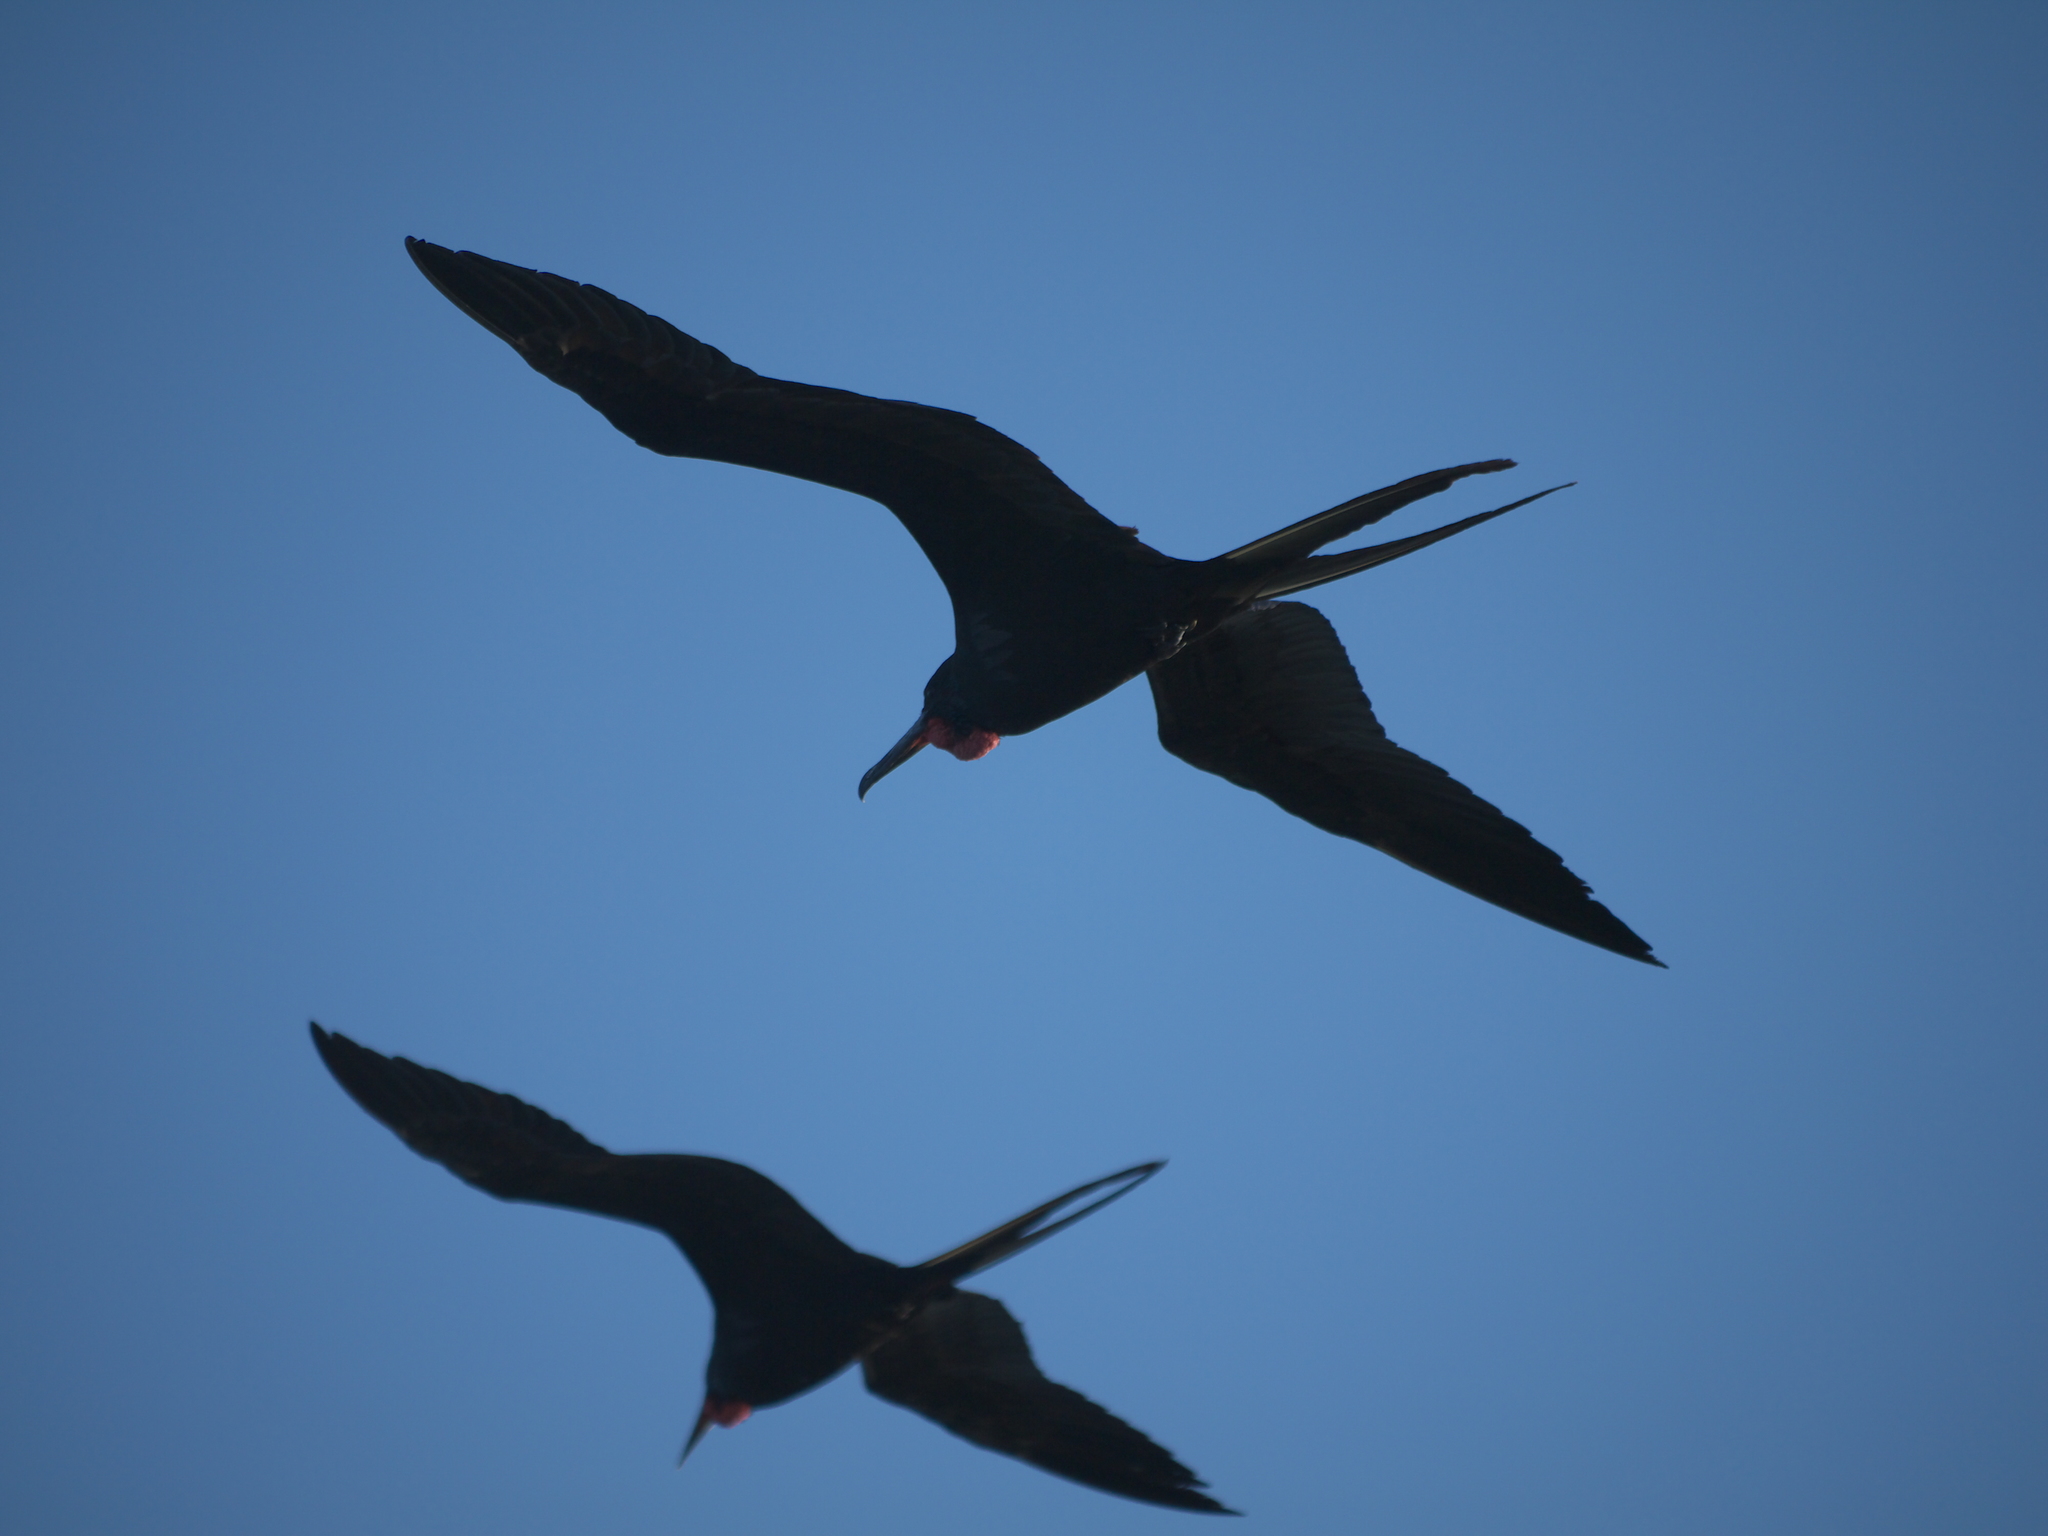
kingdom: Animalia
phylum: Chordata
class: Aves
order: Suliformes
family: Fregatidae
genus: Fregata
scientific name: Fregata magnificens
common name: Magnificent frigatebird
